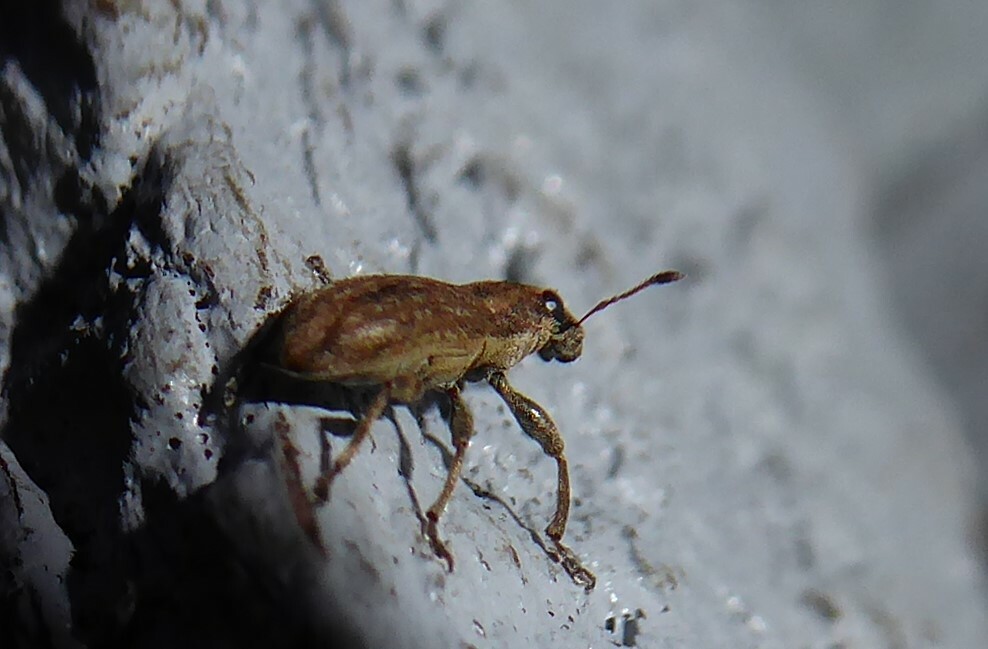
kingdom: Animalia
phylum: Arthropoda
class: Insecta
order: Coleoptera
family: Curculionidae
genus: Sitona
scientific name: Sitona obsoletus
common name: Weevil
